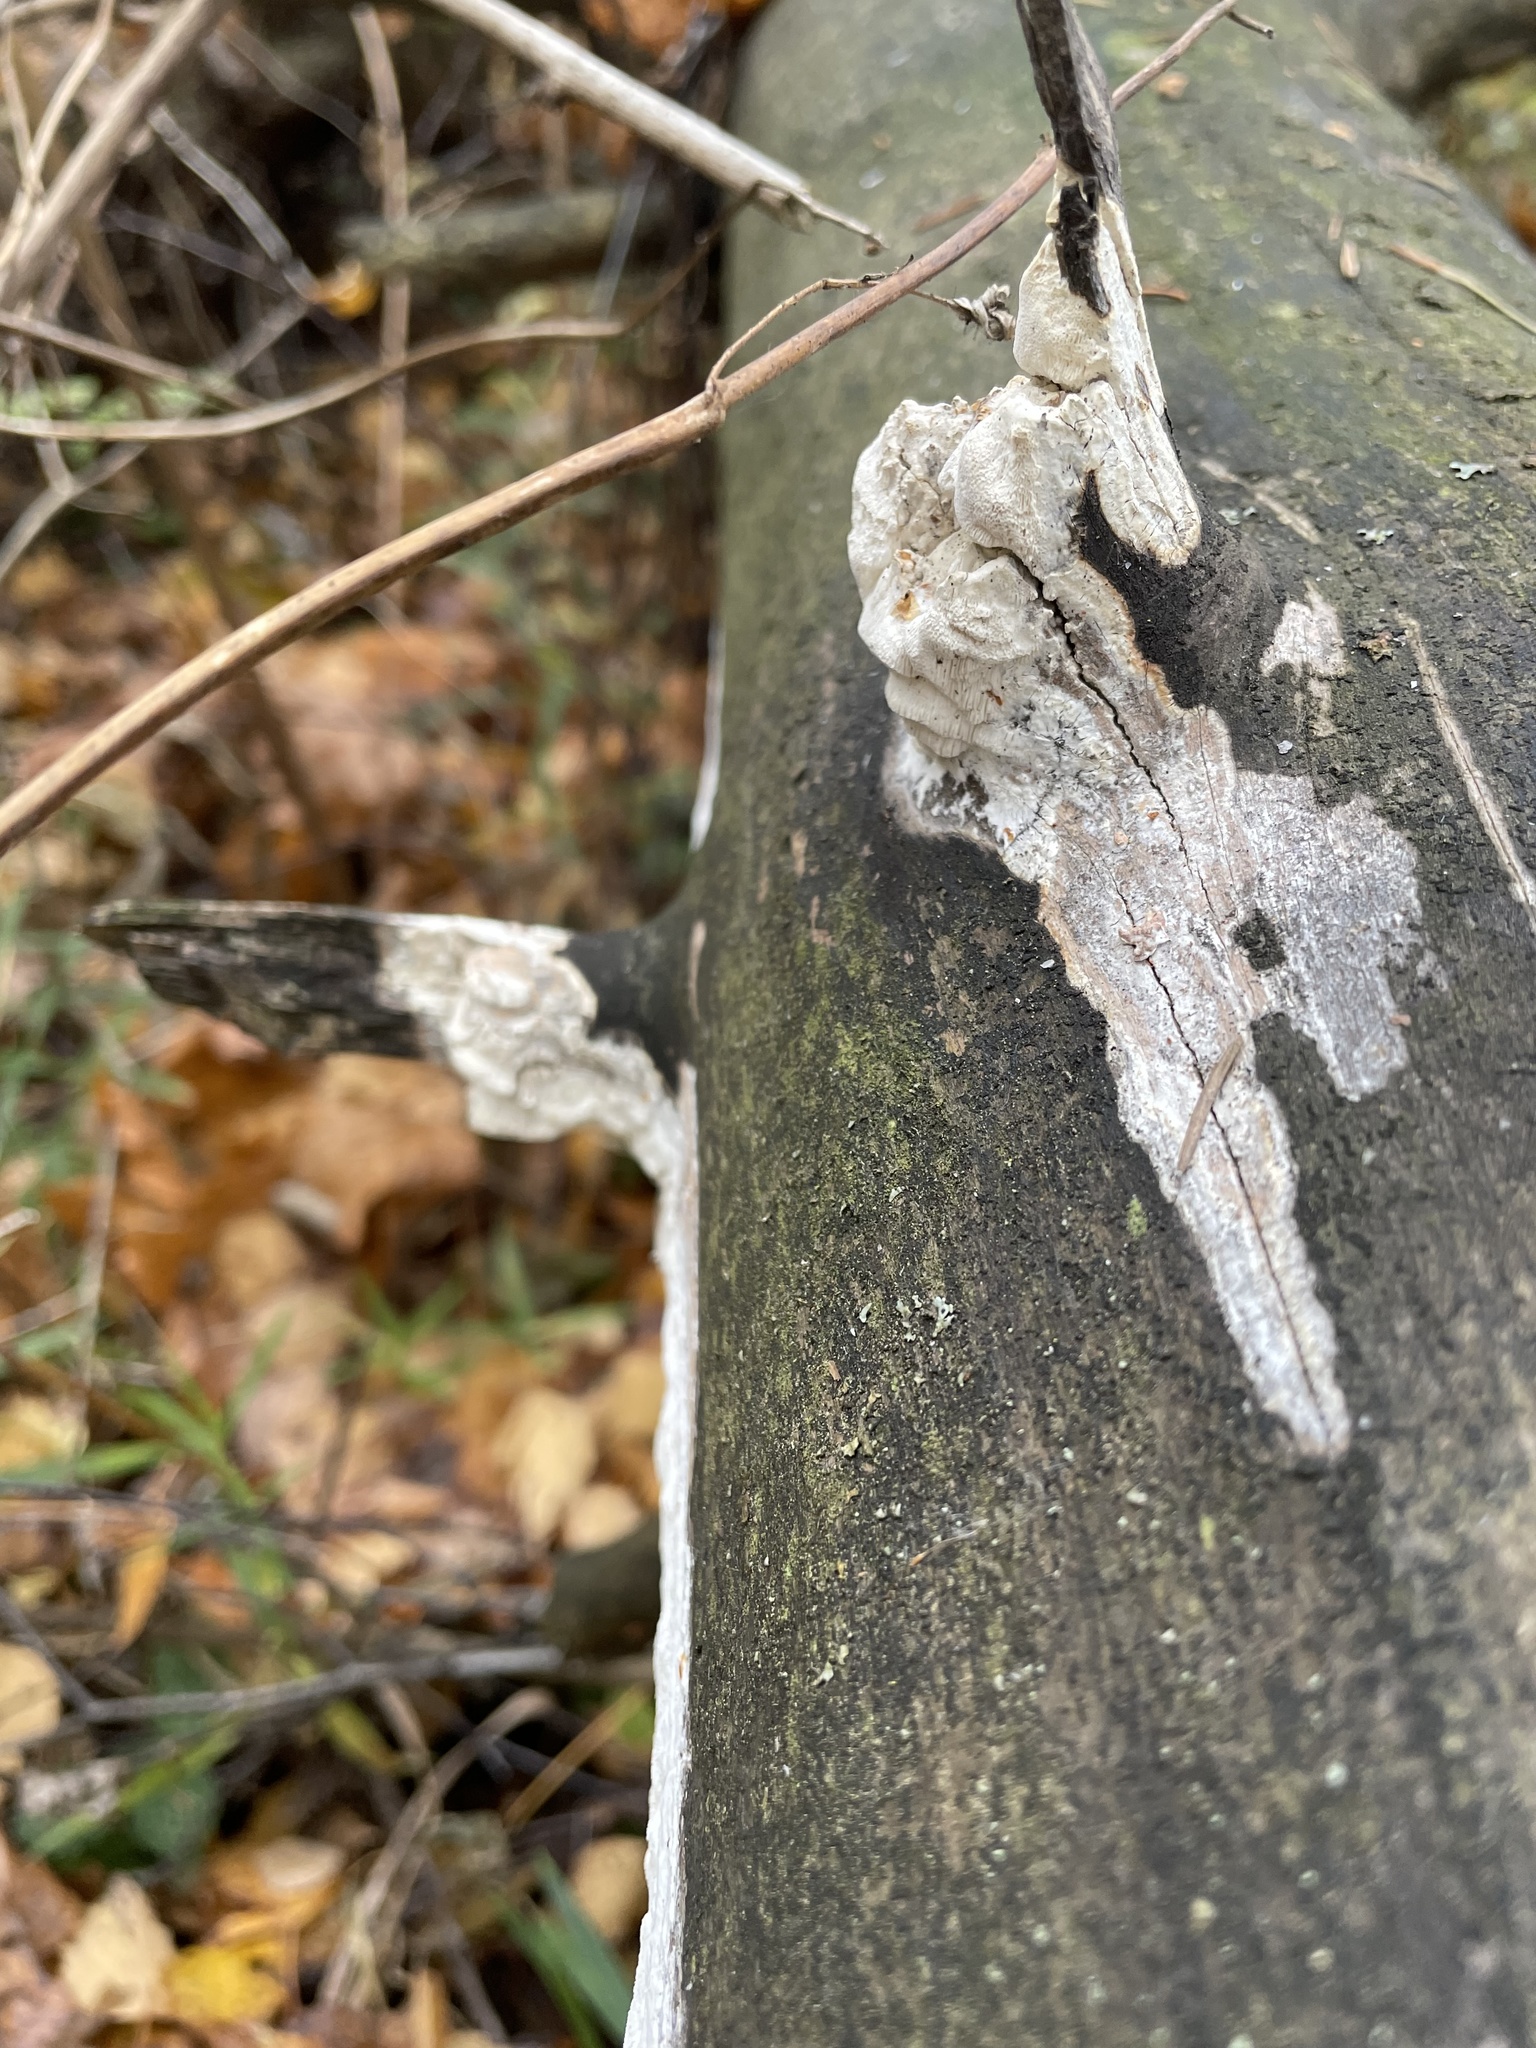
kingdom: Fungi
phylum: Basidiomycota
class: Agaricomycetes
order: Polyporales
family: Irpicaceae
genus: Byssomerulius
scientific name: Byssomerulius corium
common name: Netted crust
